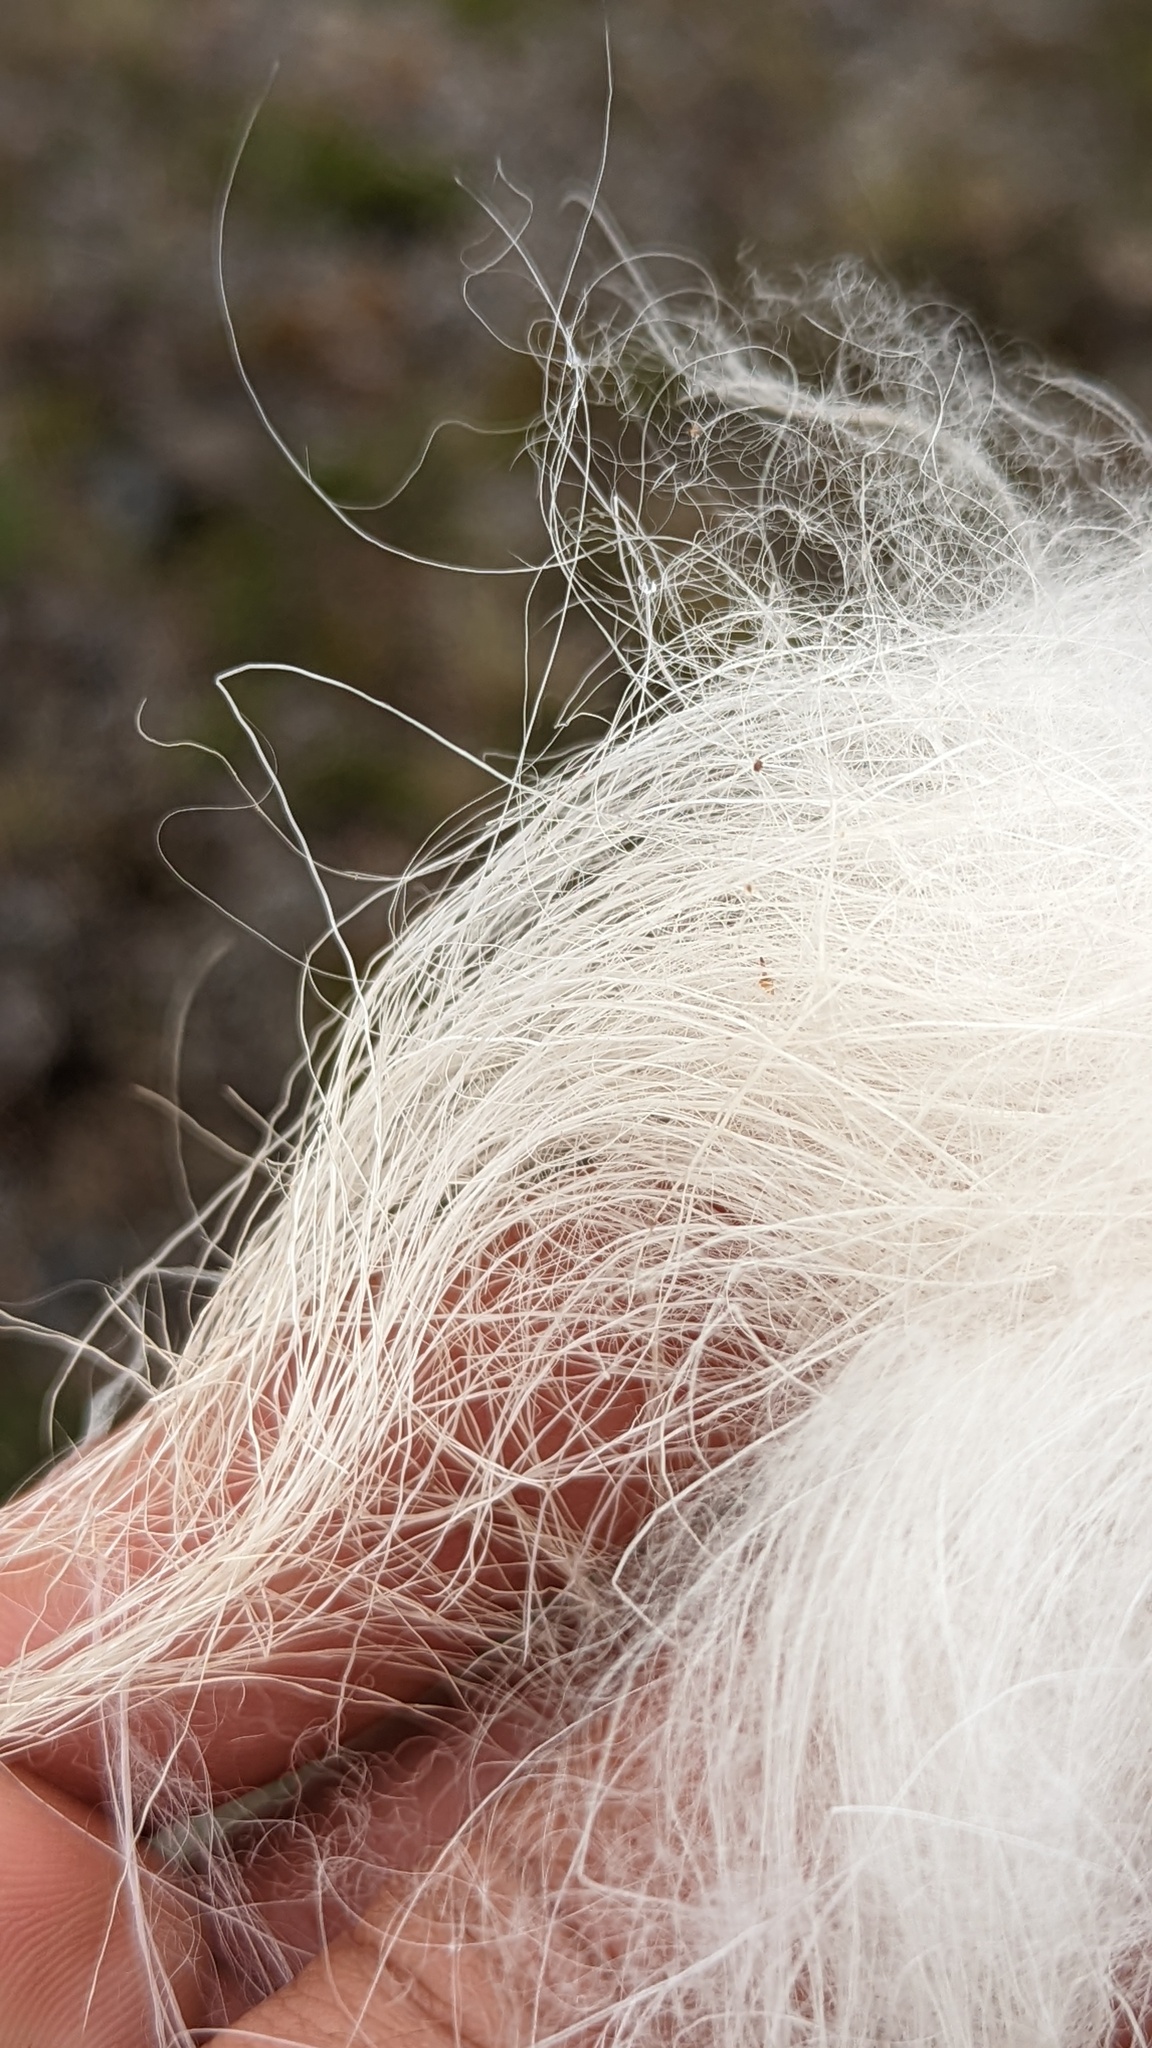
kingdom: Animalia
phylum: Chordata
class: Mammalia
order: Artiodactyla
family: Bovidae
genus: Oreamnos
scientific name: Oreamnos americanus
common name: Mountain goat
